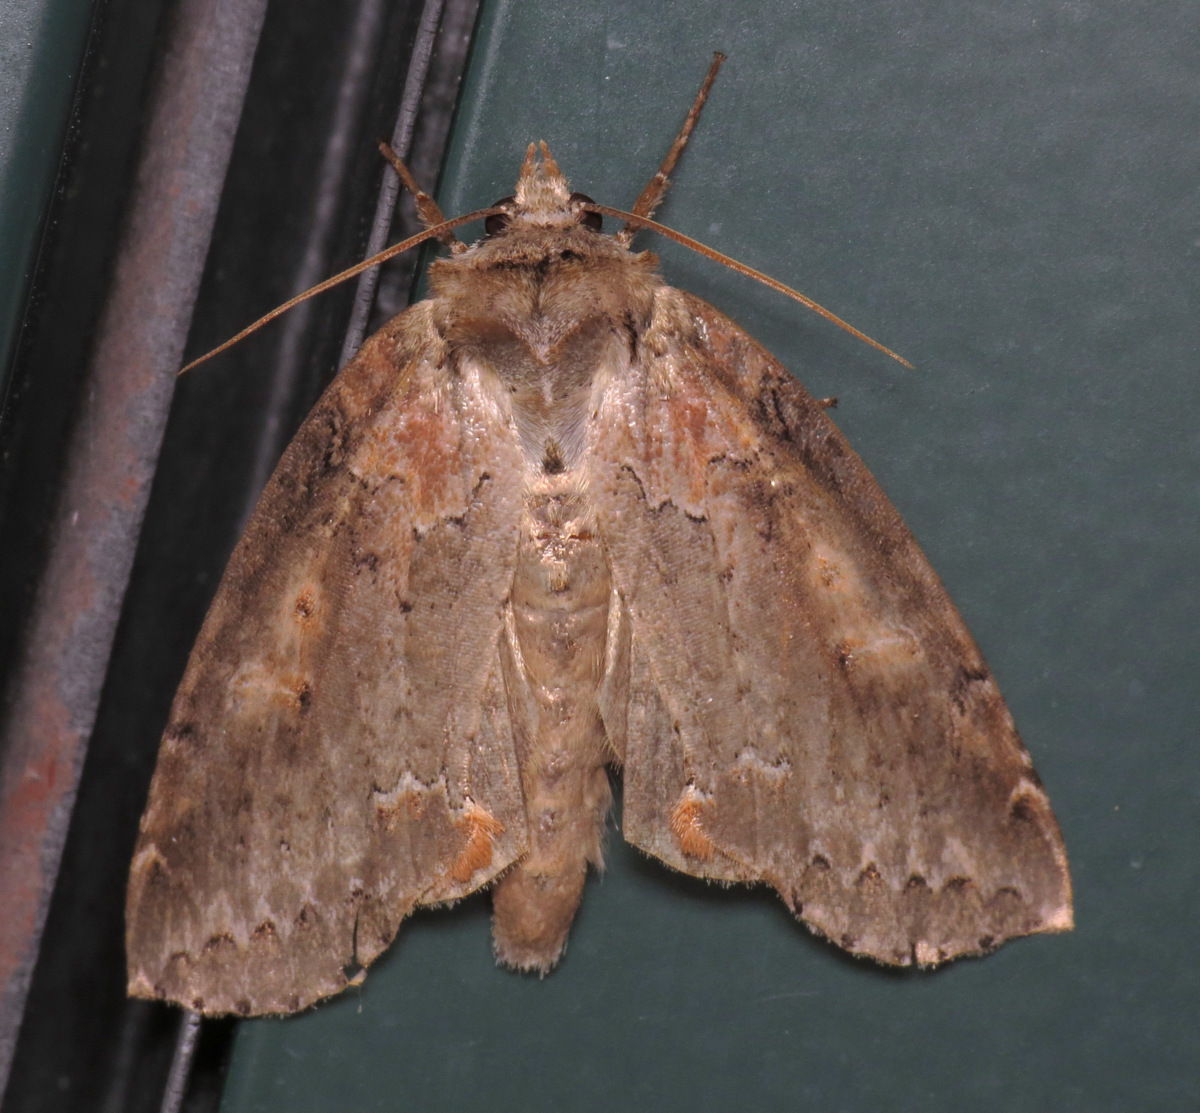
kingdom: Animalia
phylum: Arthropoda
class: Insecta
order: Lepidoptera
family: Drepanidae
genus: Pseudothyatira
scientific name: Pseudothyatira cymatophoroides
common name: Tufted thyatirid moth
